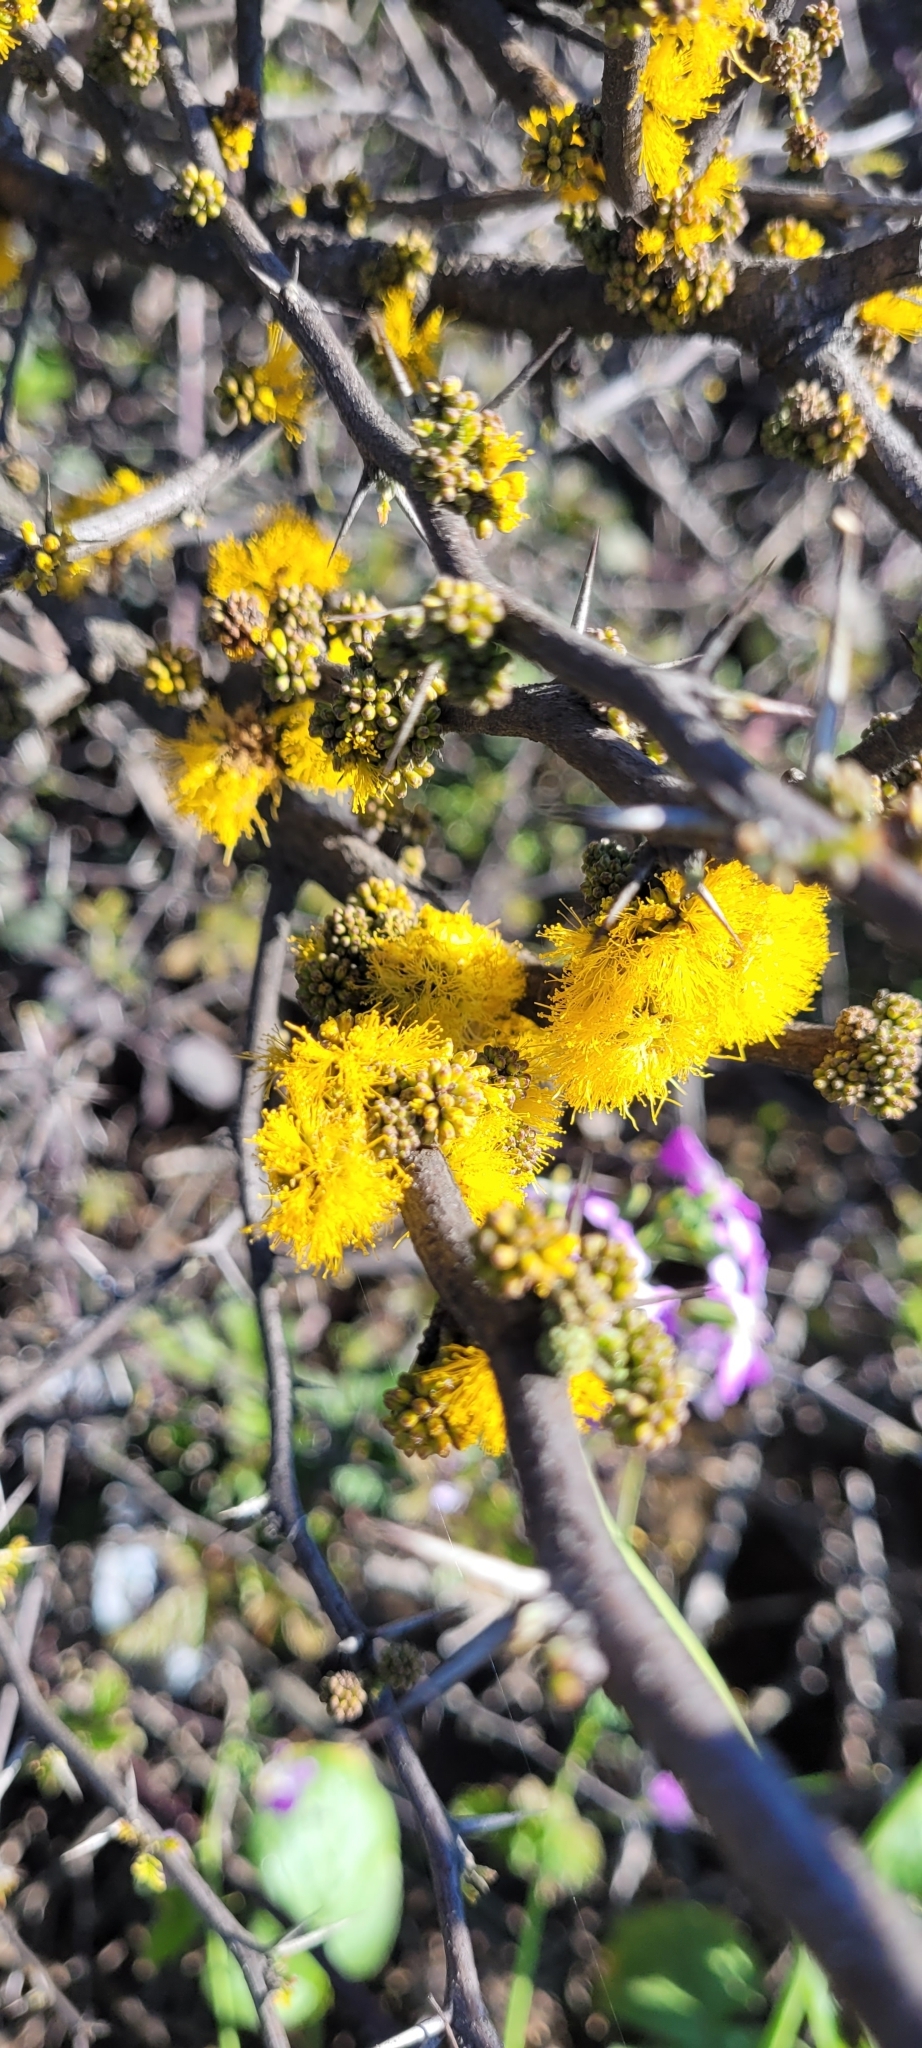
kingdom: Plantae
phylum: Tracheophyta
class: Magnoliopsida
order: Fabales
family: Fabaceae
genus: Vachellia
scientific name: Vachellia caven
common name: Roman cassie
